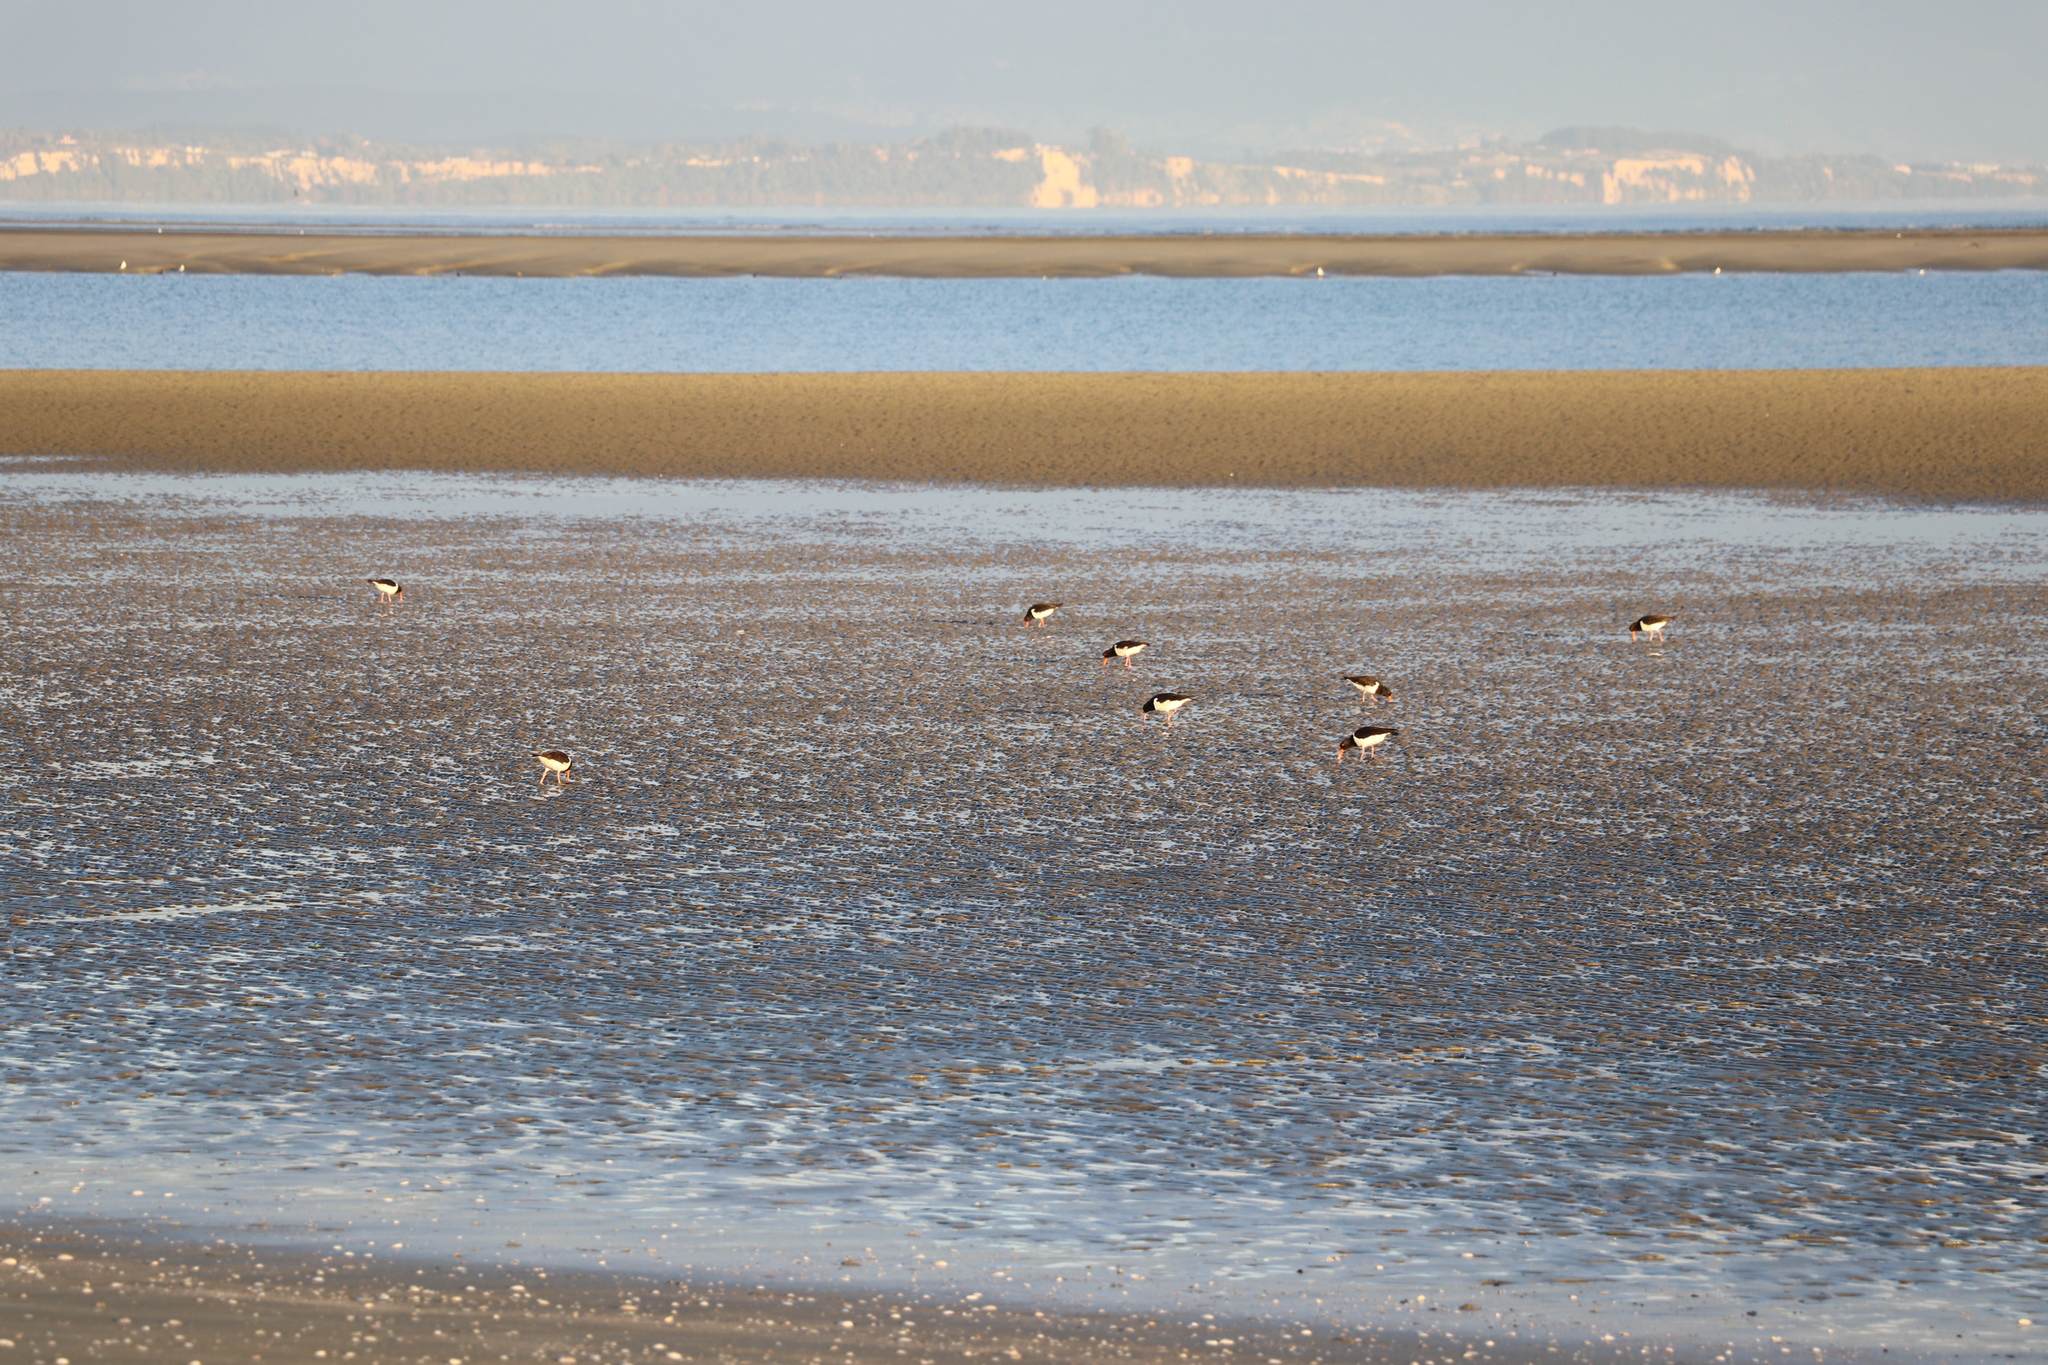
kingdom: Animalia
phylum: Chordata
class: Aves
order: Charadriiformes
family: Haematopodidae
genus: Haematopus
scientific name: Haematopus finschi
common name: South island oystercatcher
